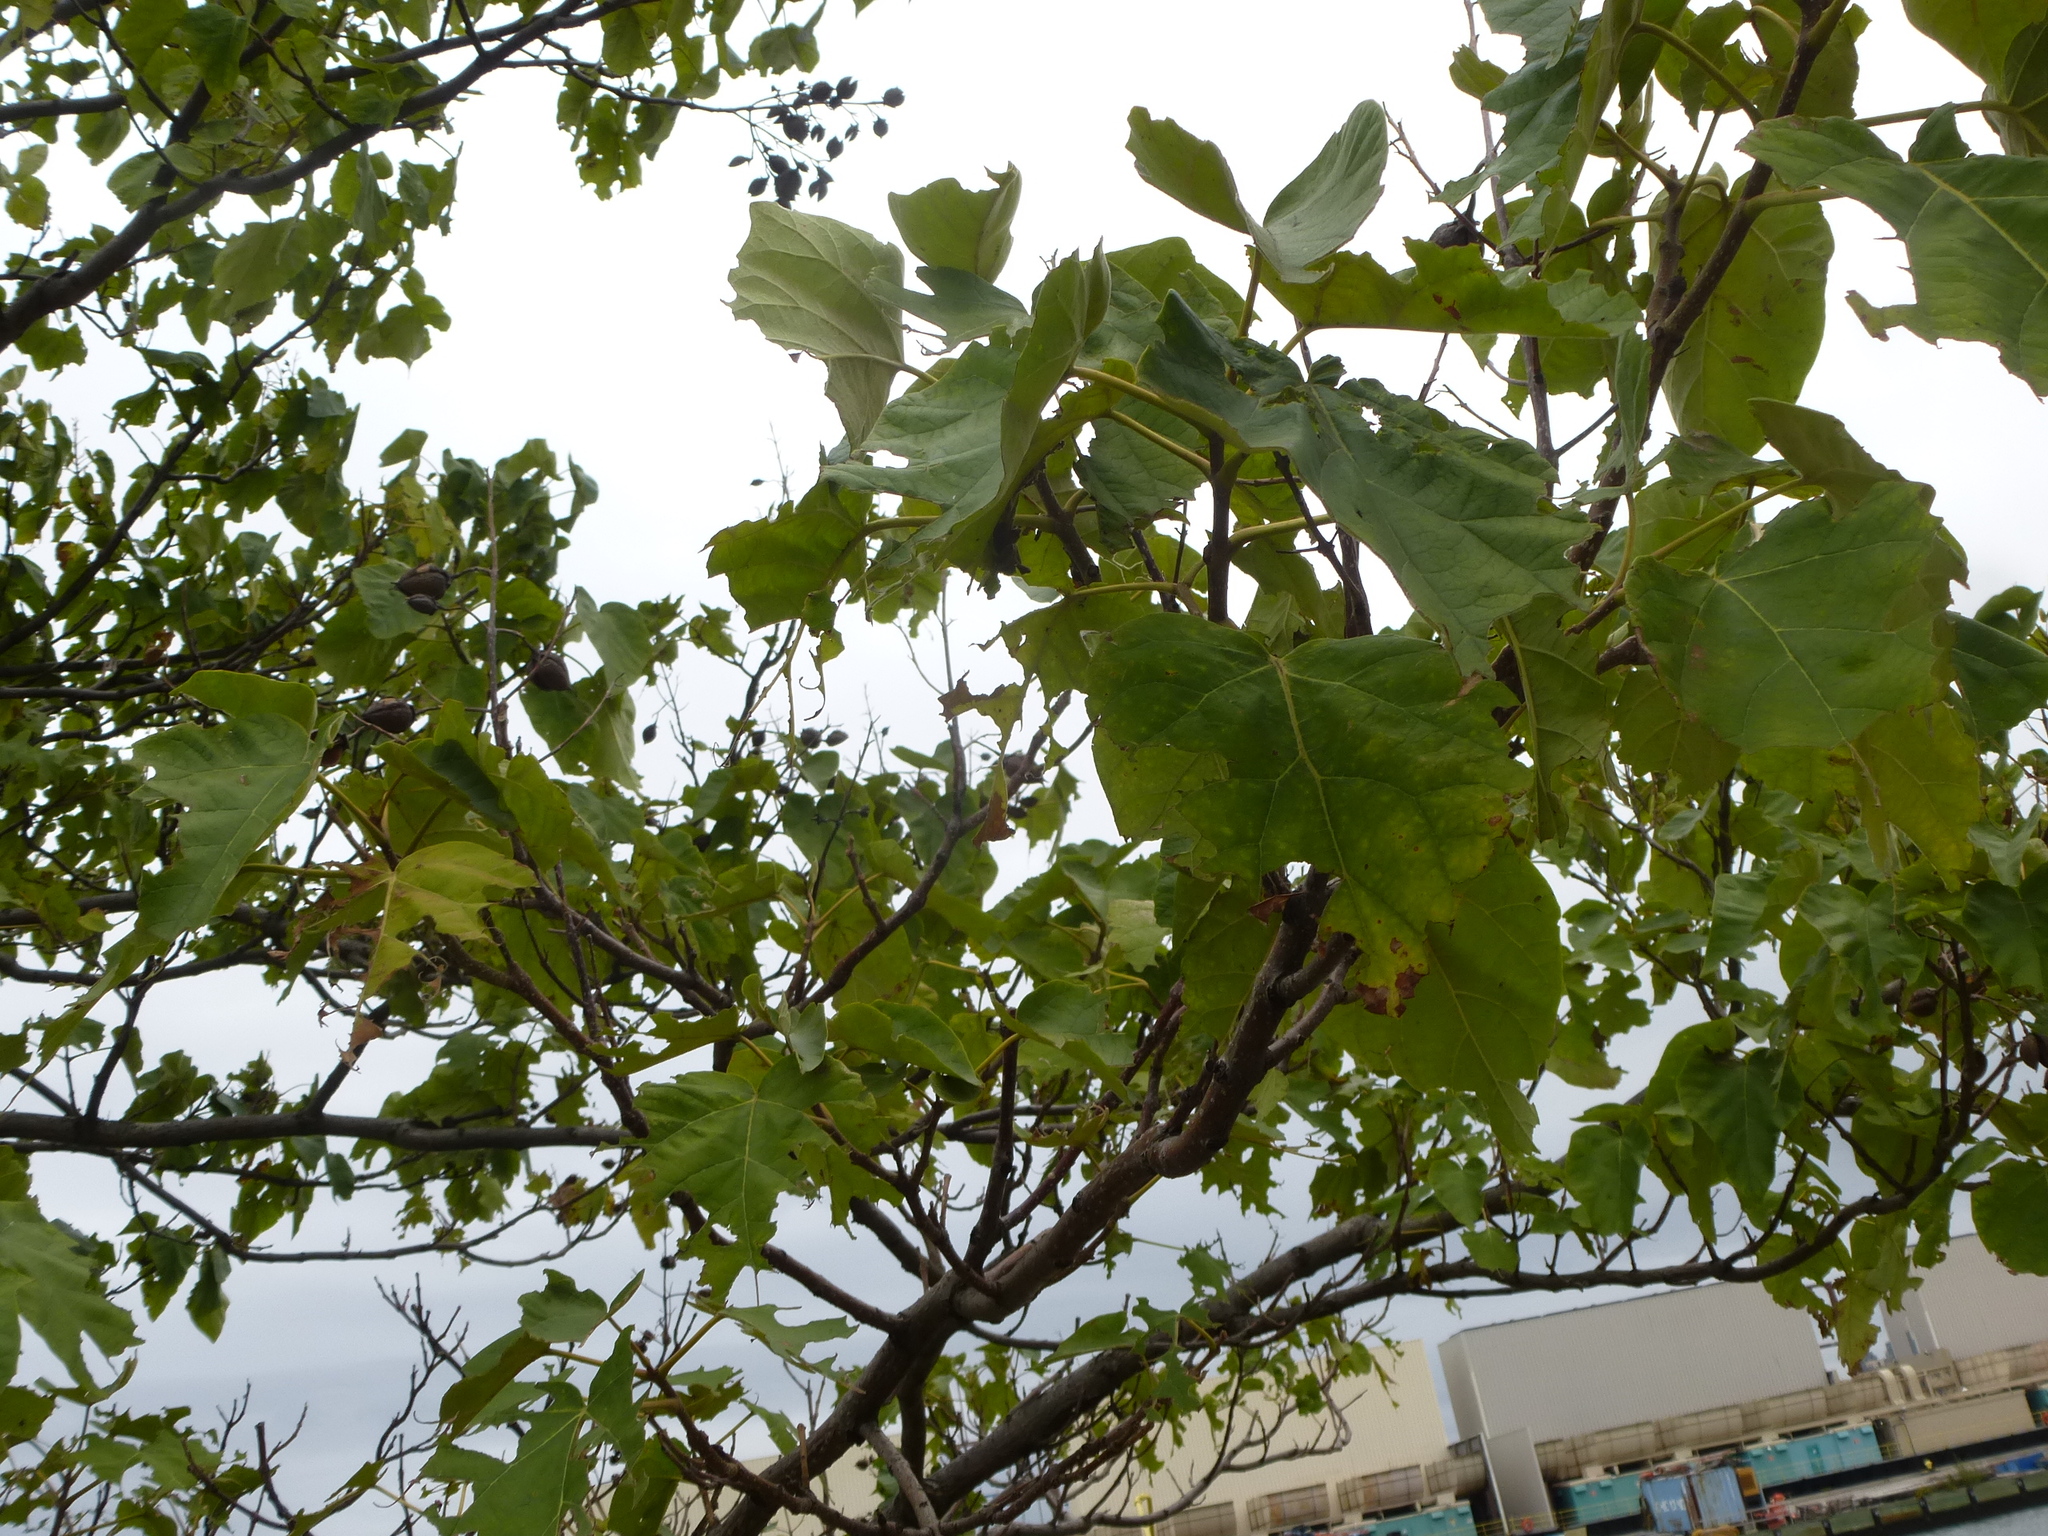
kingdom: Plantae
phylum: Tracheophyta
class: Magnoliopsida
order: Lamiales
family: Paulowniaceae
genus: Paulownia
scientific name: Paulownia tomentosa
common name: Foxglove-tree
